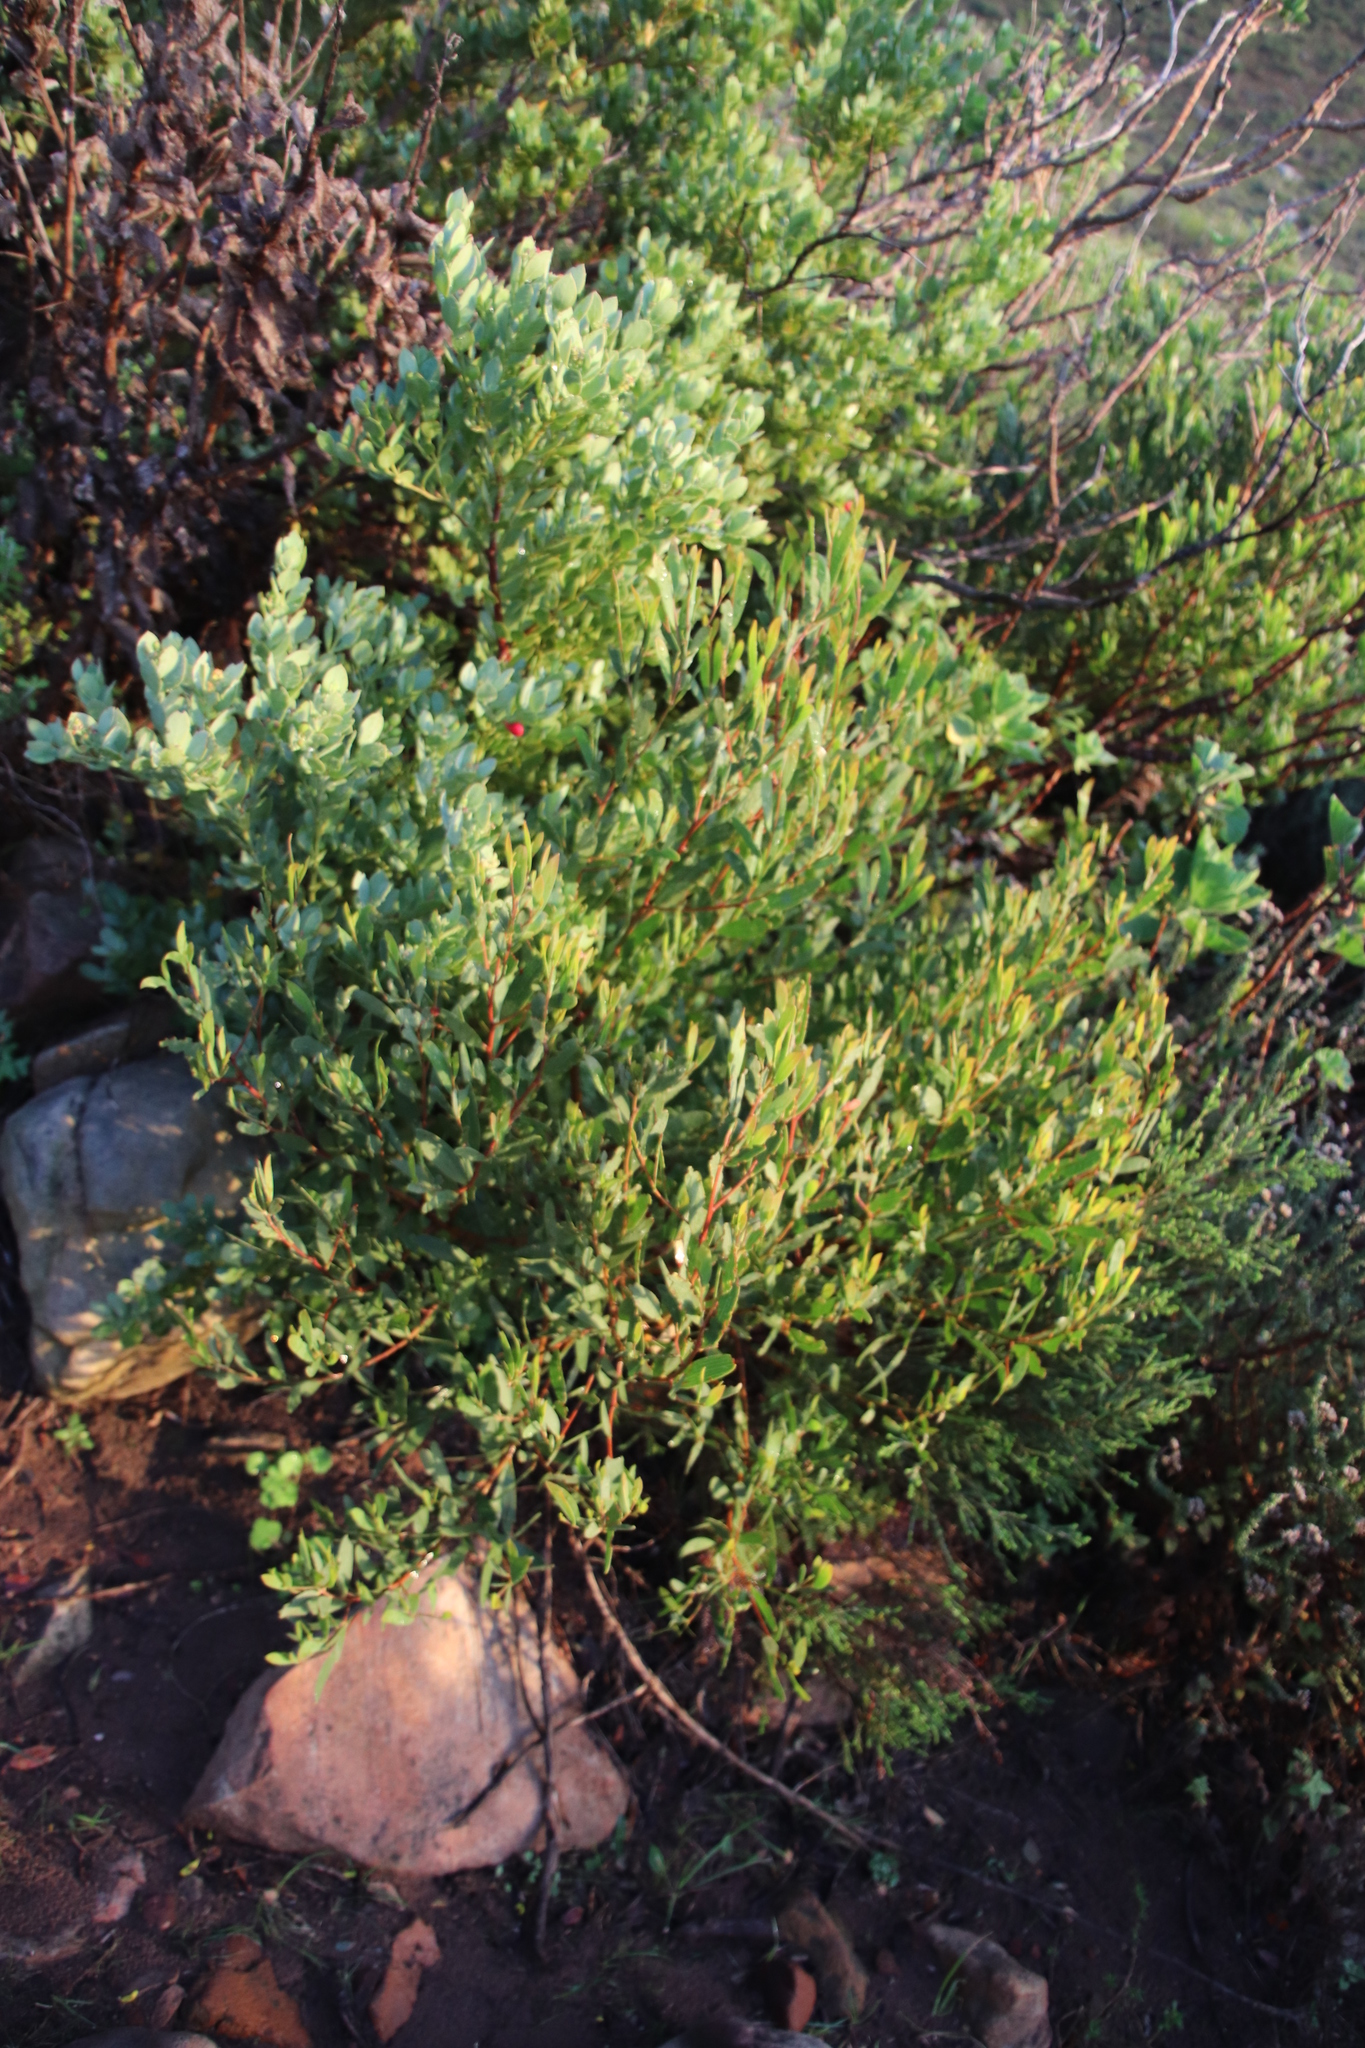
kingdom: Plantae
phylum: Tracheophyta
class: Magnoliopsida
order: Santalales
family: Santalaceae
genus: Osyris
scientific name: Osyris compressa
